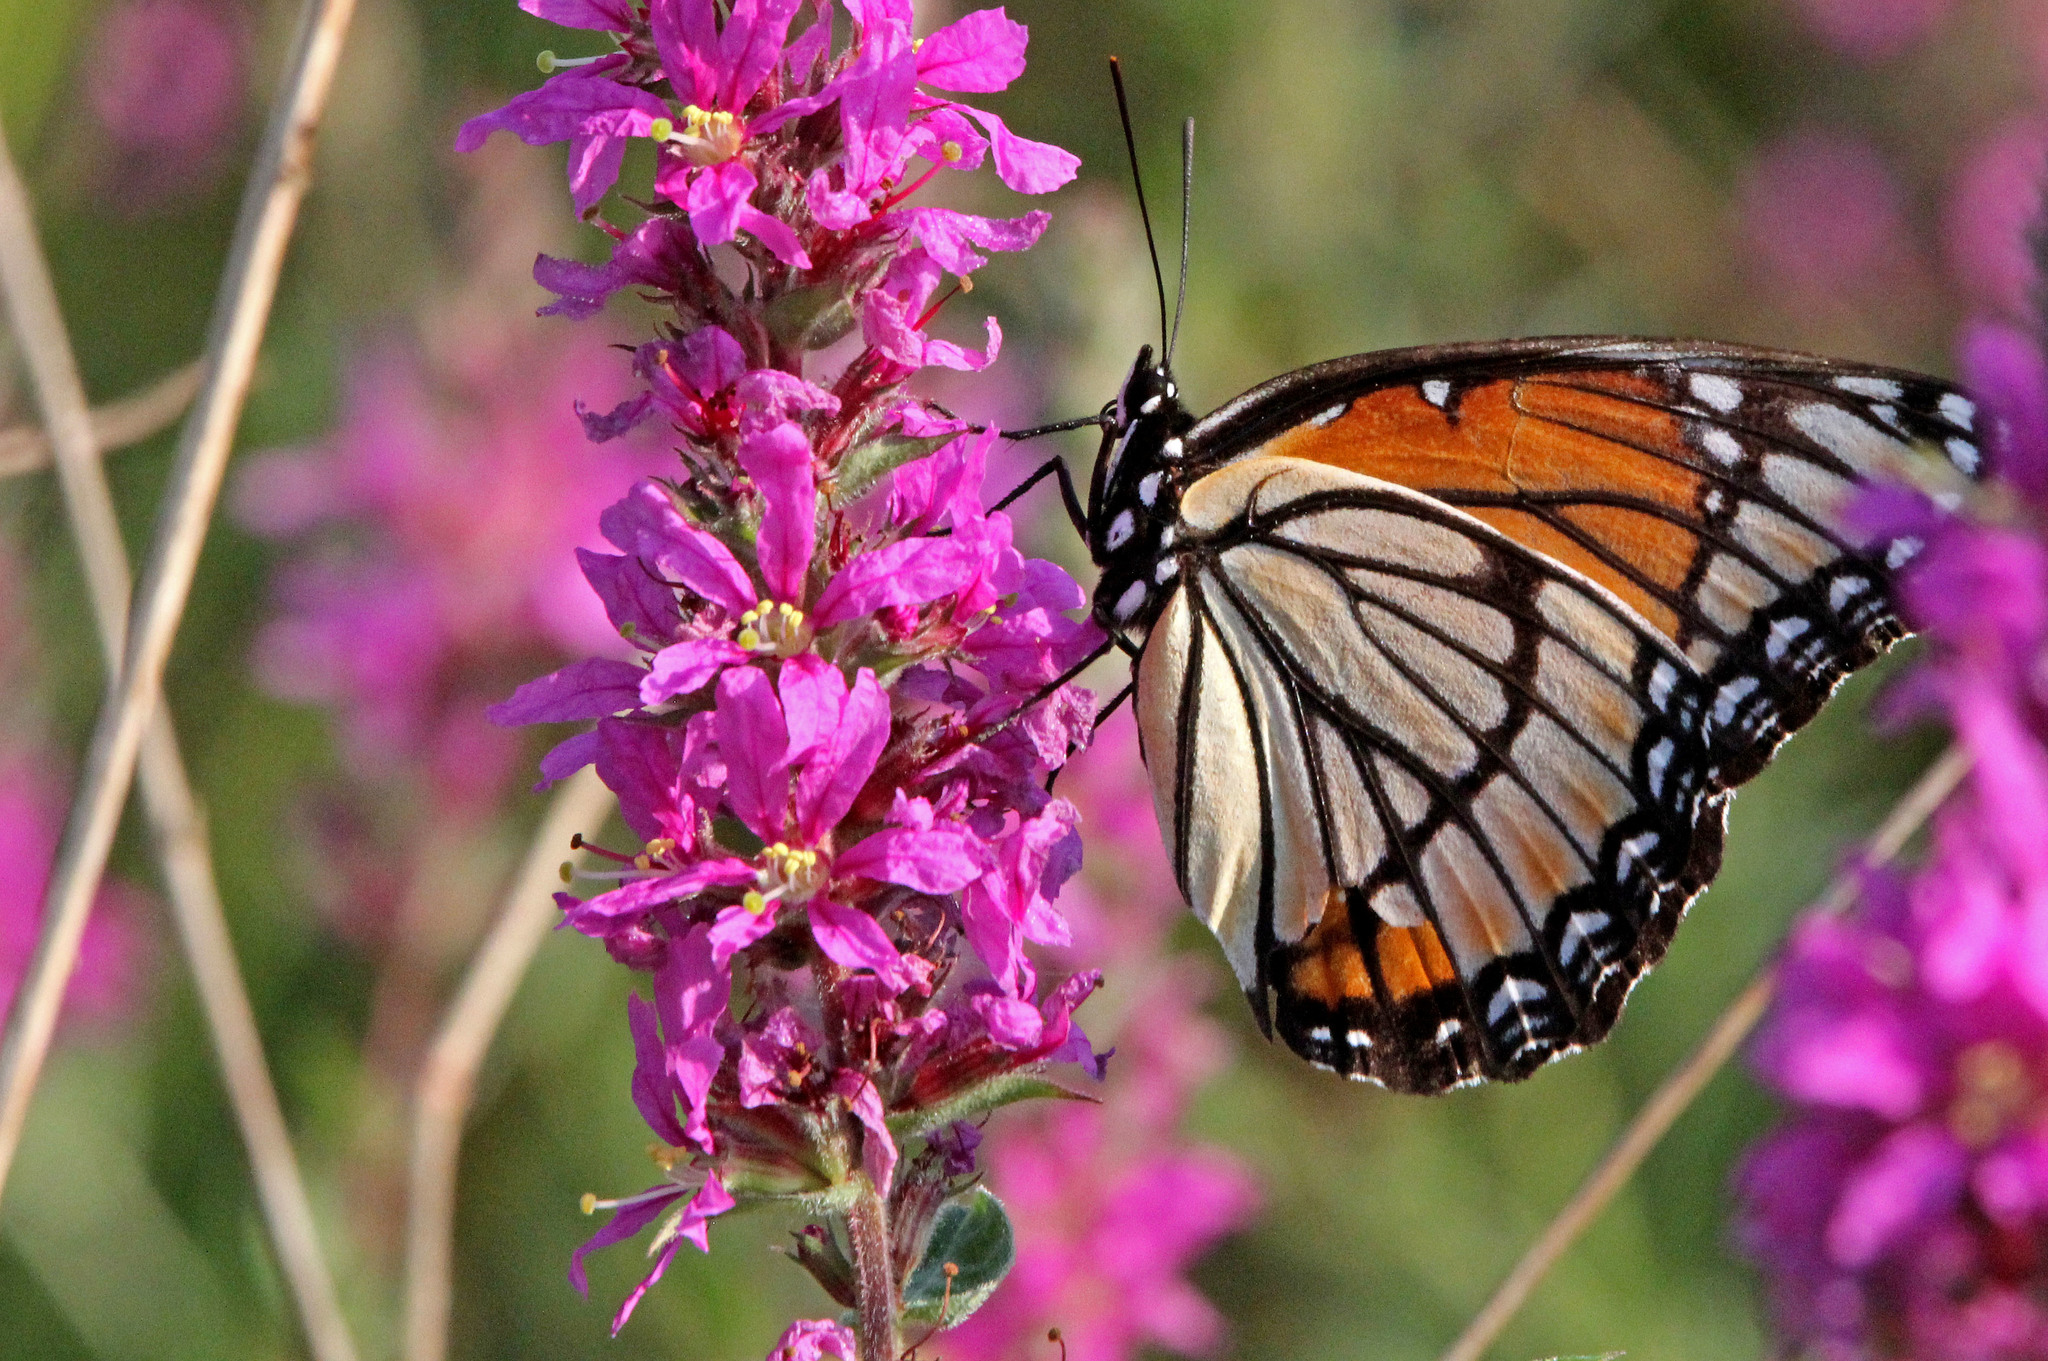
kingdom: Animalia
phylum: Arthropoda
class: Insecta
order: Lepidoptera
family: Nymphalidae
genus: Limenitis
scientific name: Limenitis archippus
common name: Viceroy
